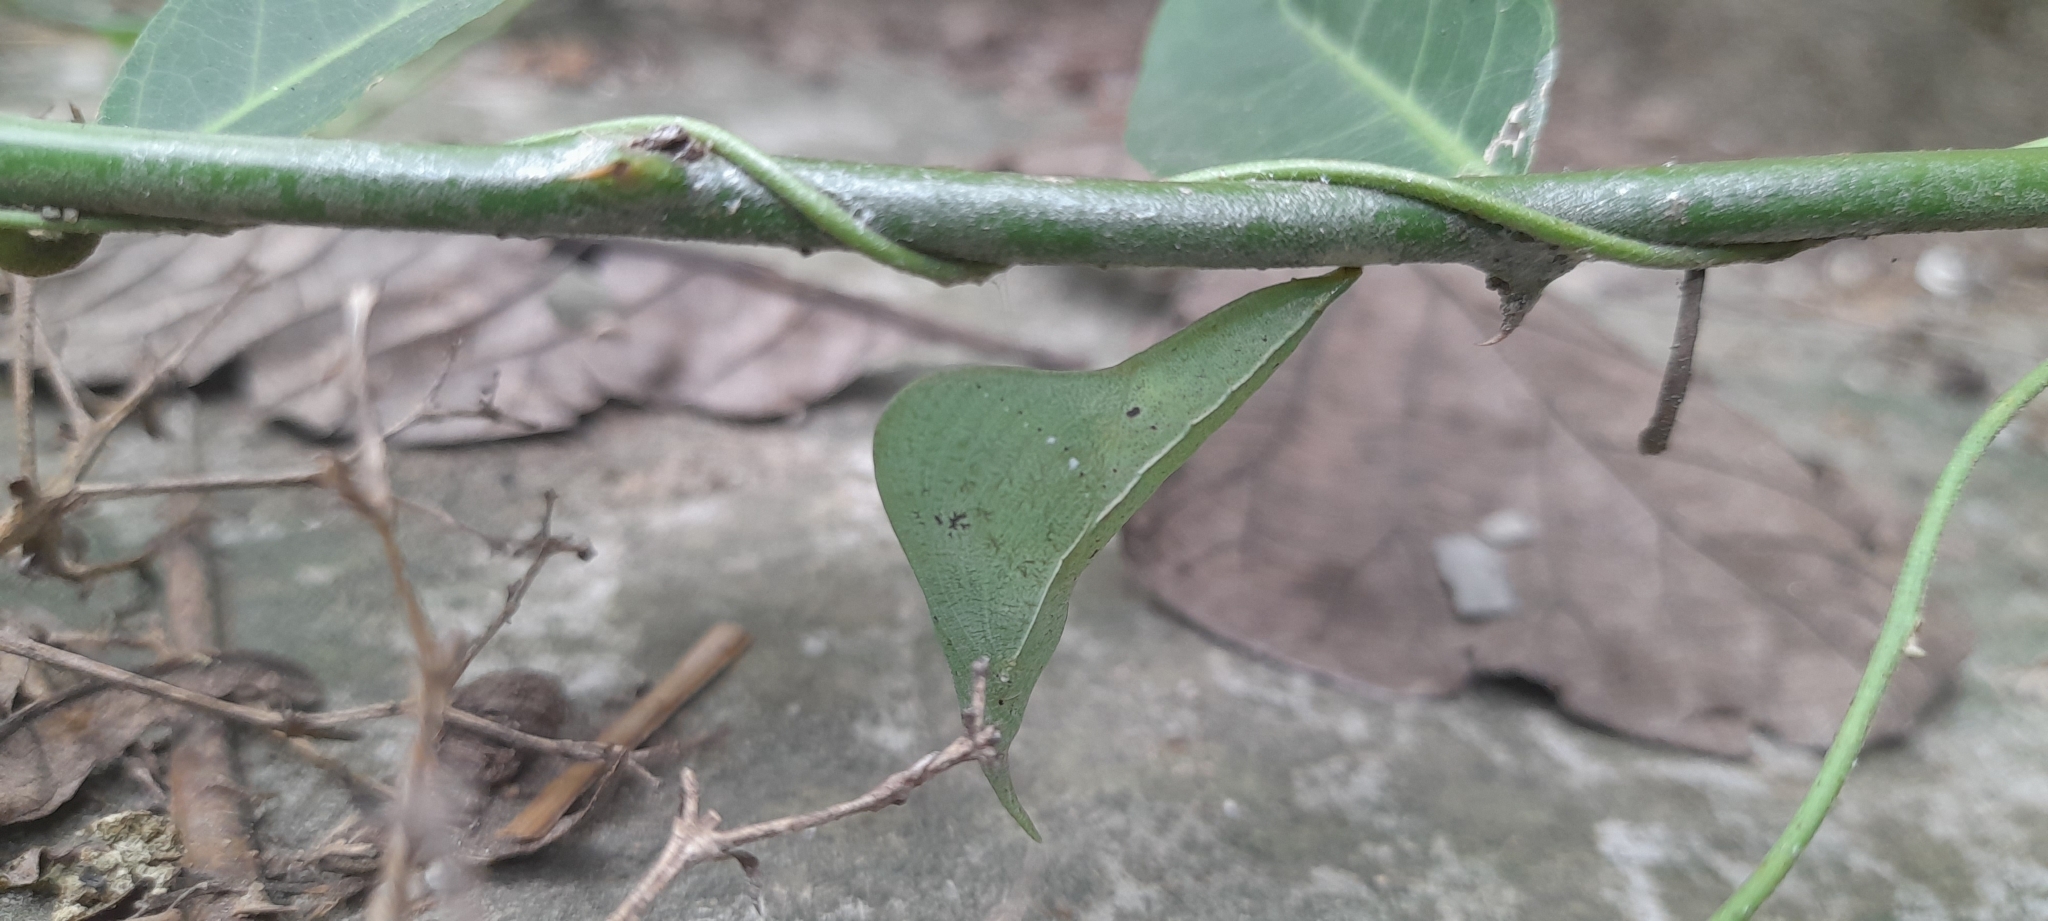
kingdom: Animalia
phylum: Arthropoda
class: Insecta
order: Lepidoptera
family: Pieridae
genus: Pareronia
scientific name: Pareronia hippia
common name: Indian wanderer
